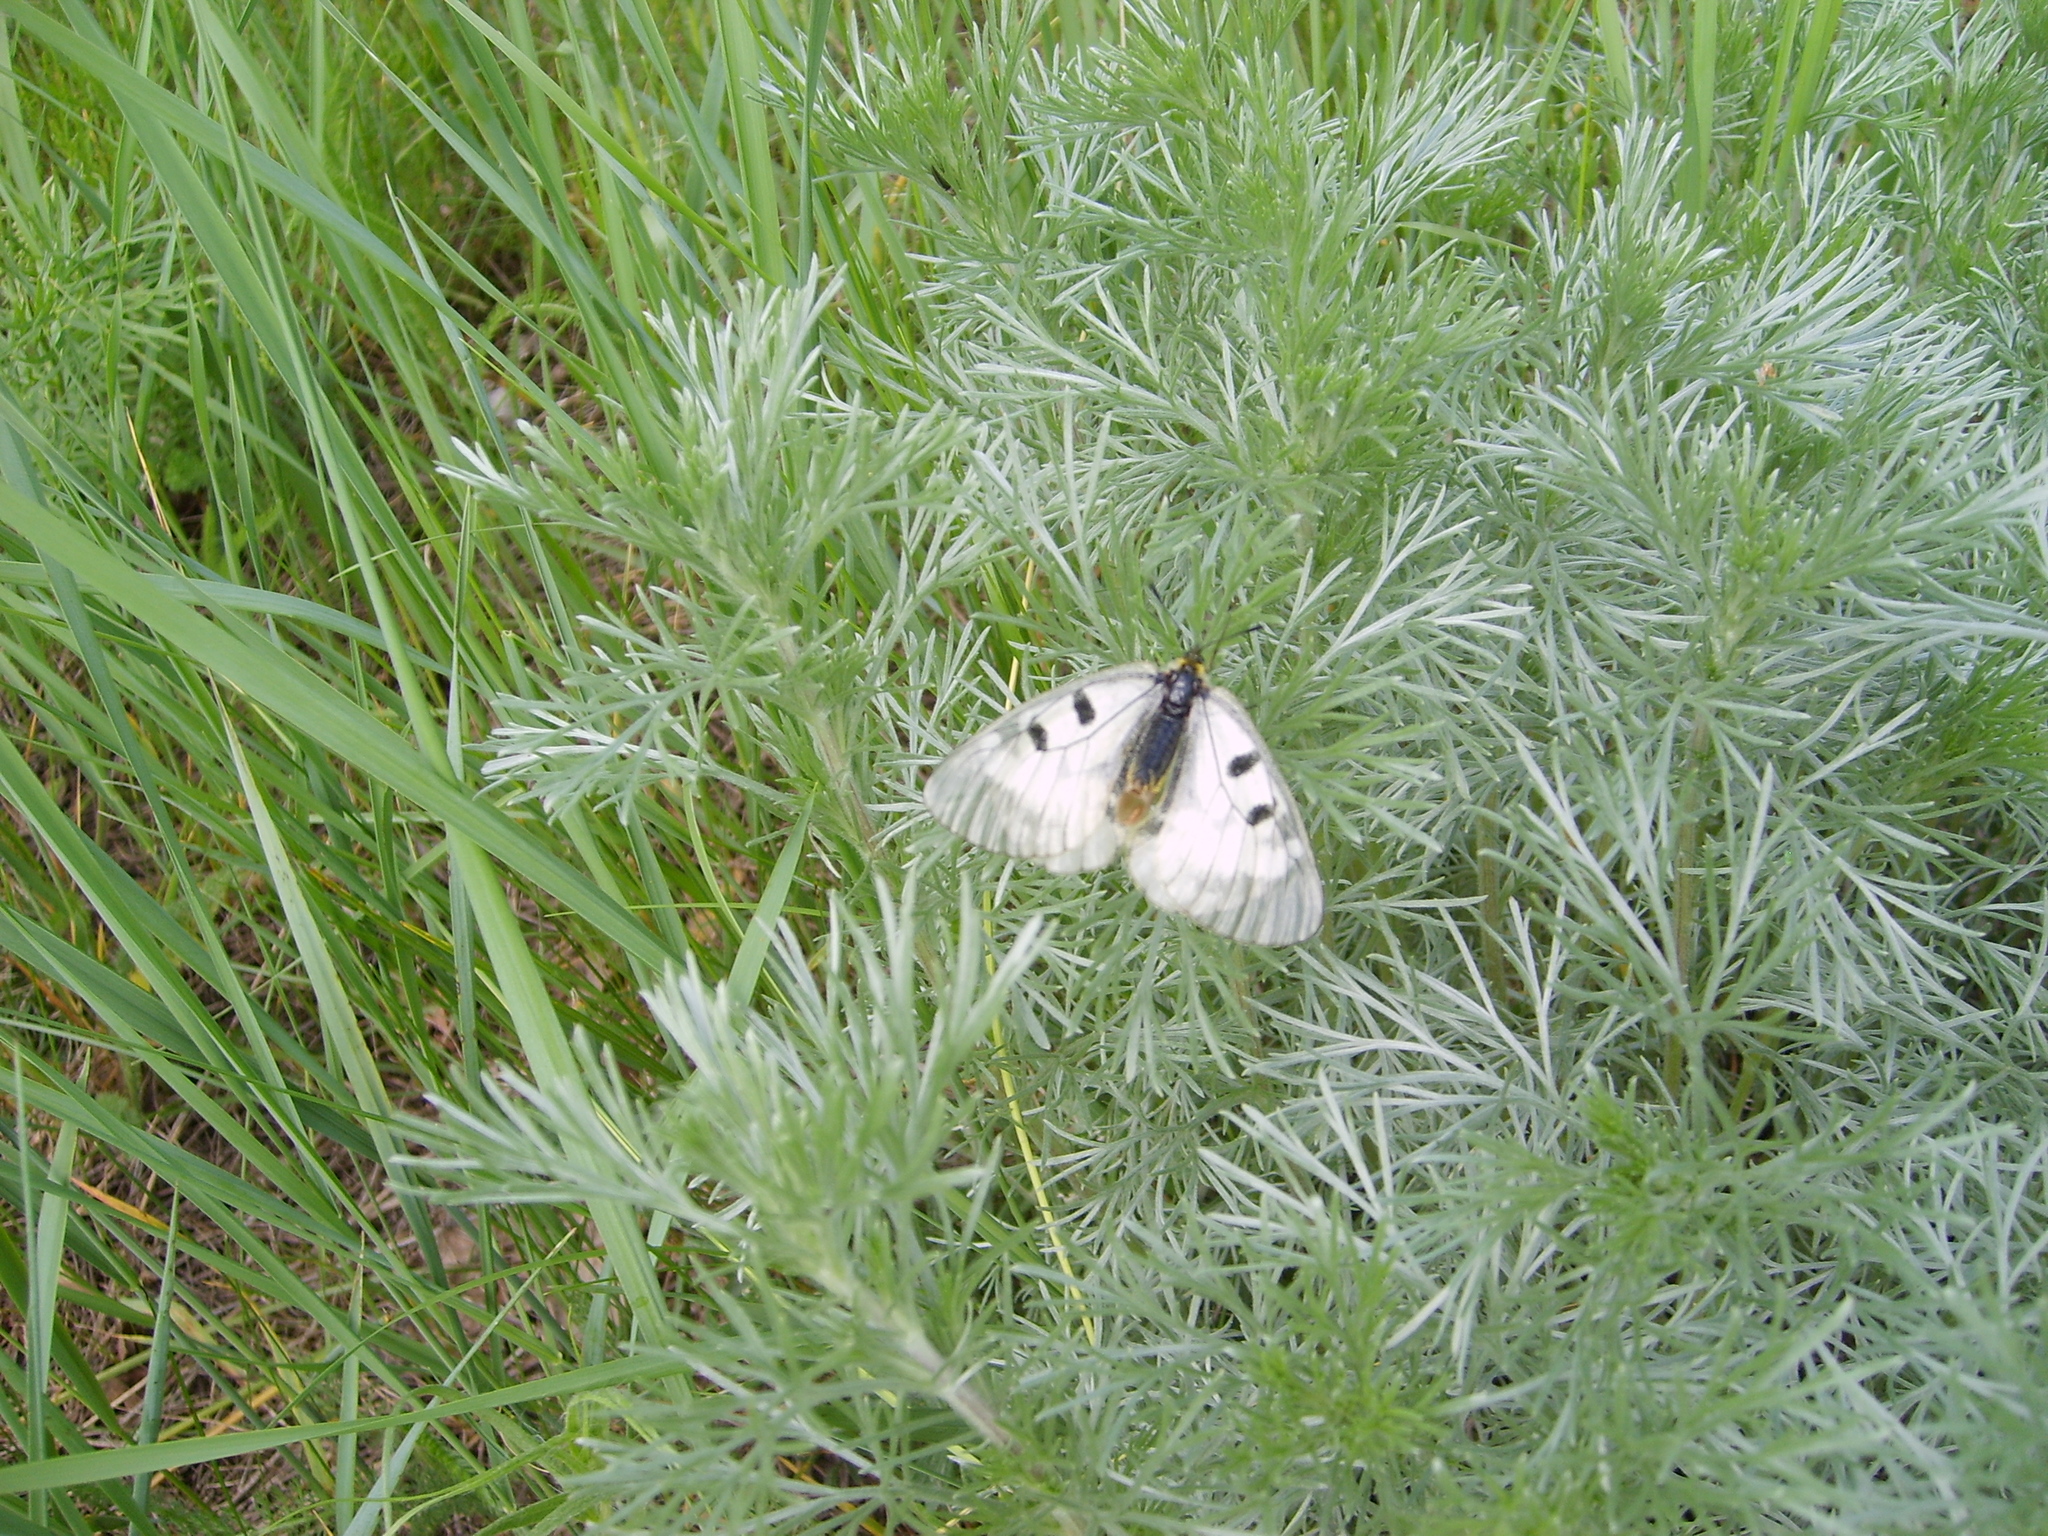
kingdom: Animalia
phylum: Arthropoda
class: Insecta
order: Lepidoptera
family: Papilionidae
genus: Parnassius
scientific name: Parnassius mnemosyne
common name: Clouded apollo
